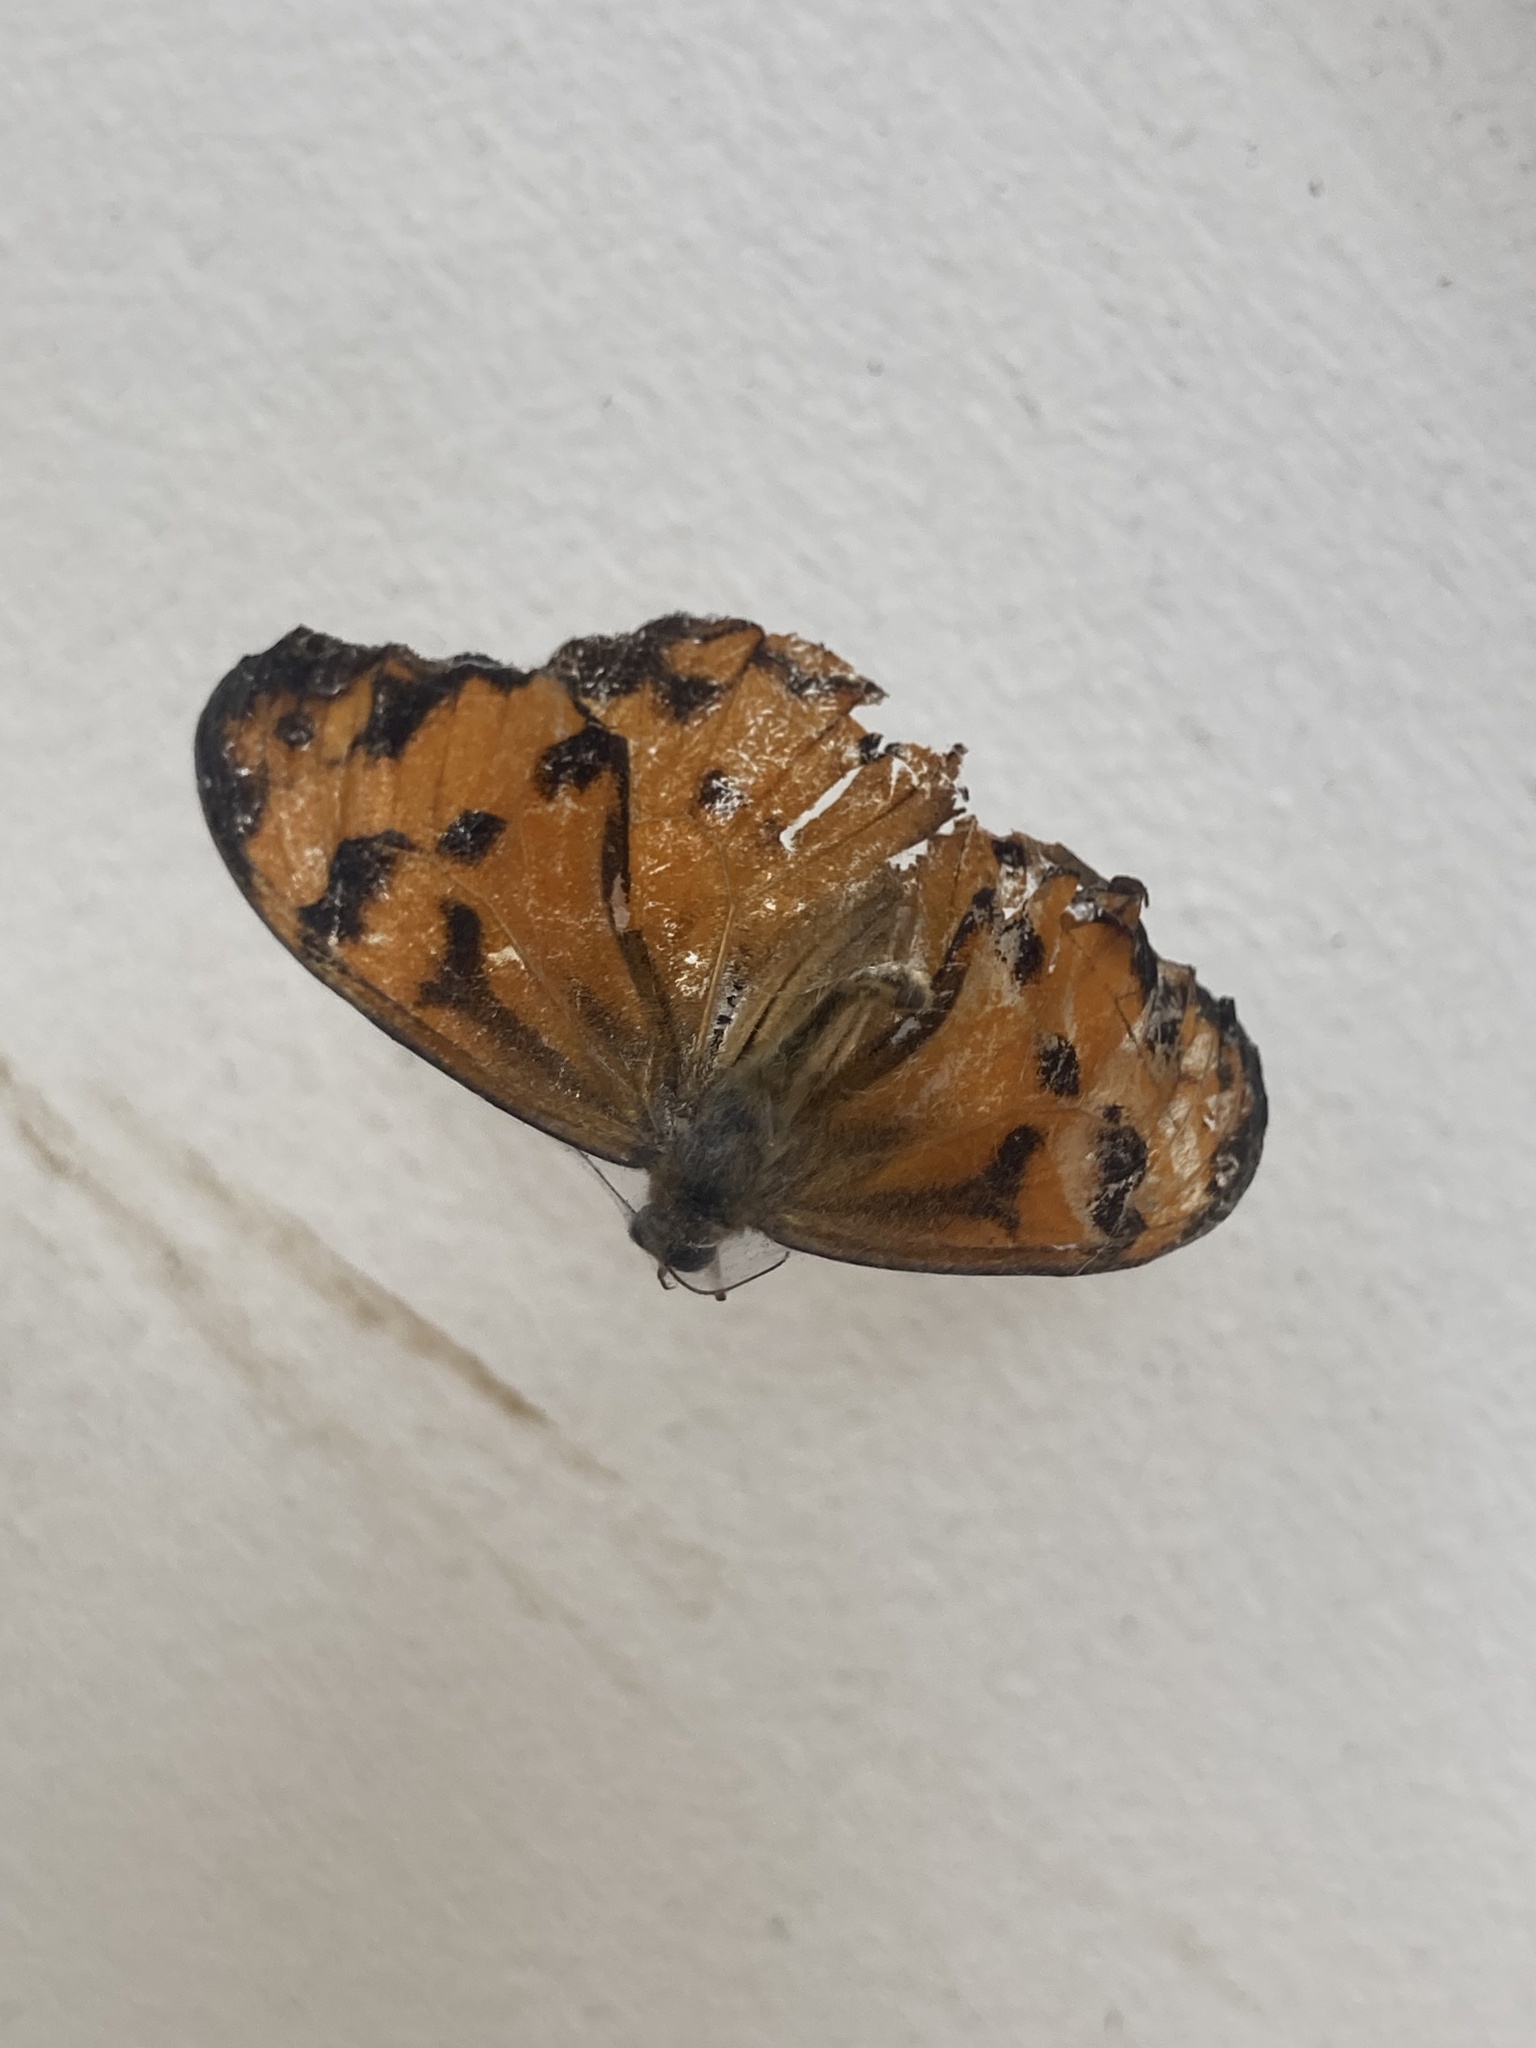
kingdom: Animalia
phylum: Arthropoda
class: Insecta
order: Lepidoptera
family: Nymphalidae
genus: Heteronympha
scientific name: Heteronympha mirifica
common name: Wonder brown
